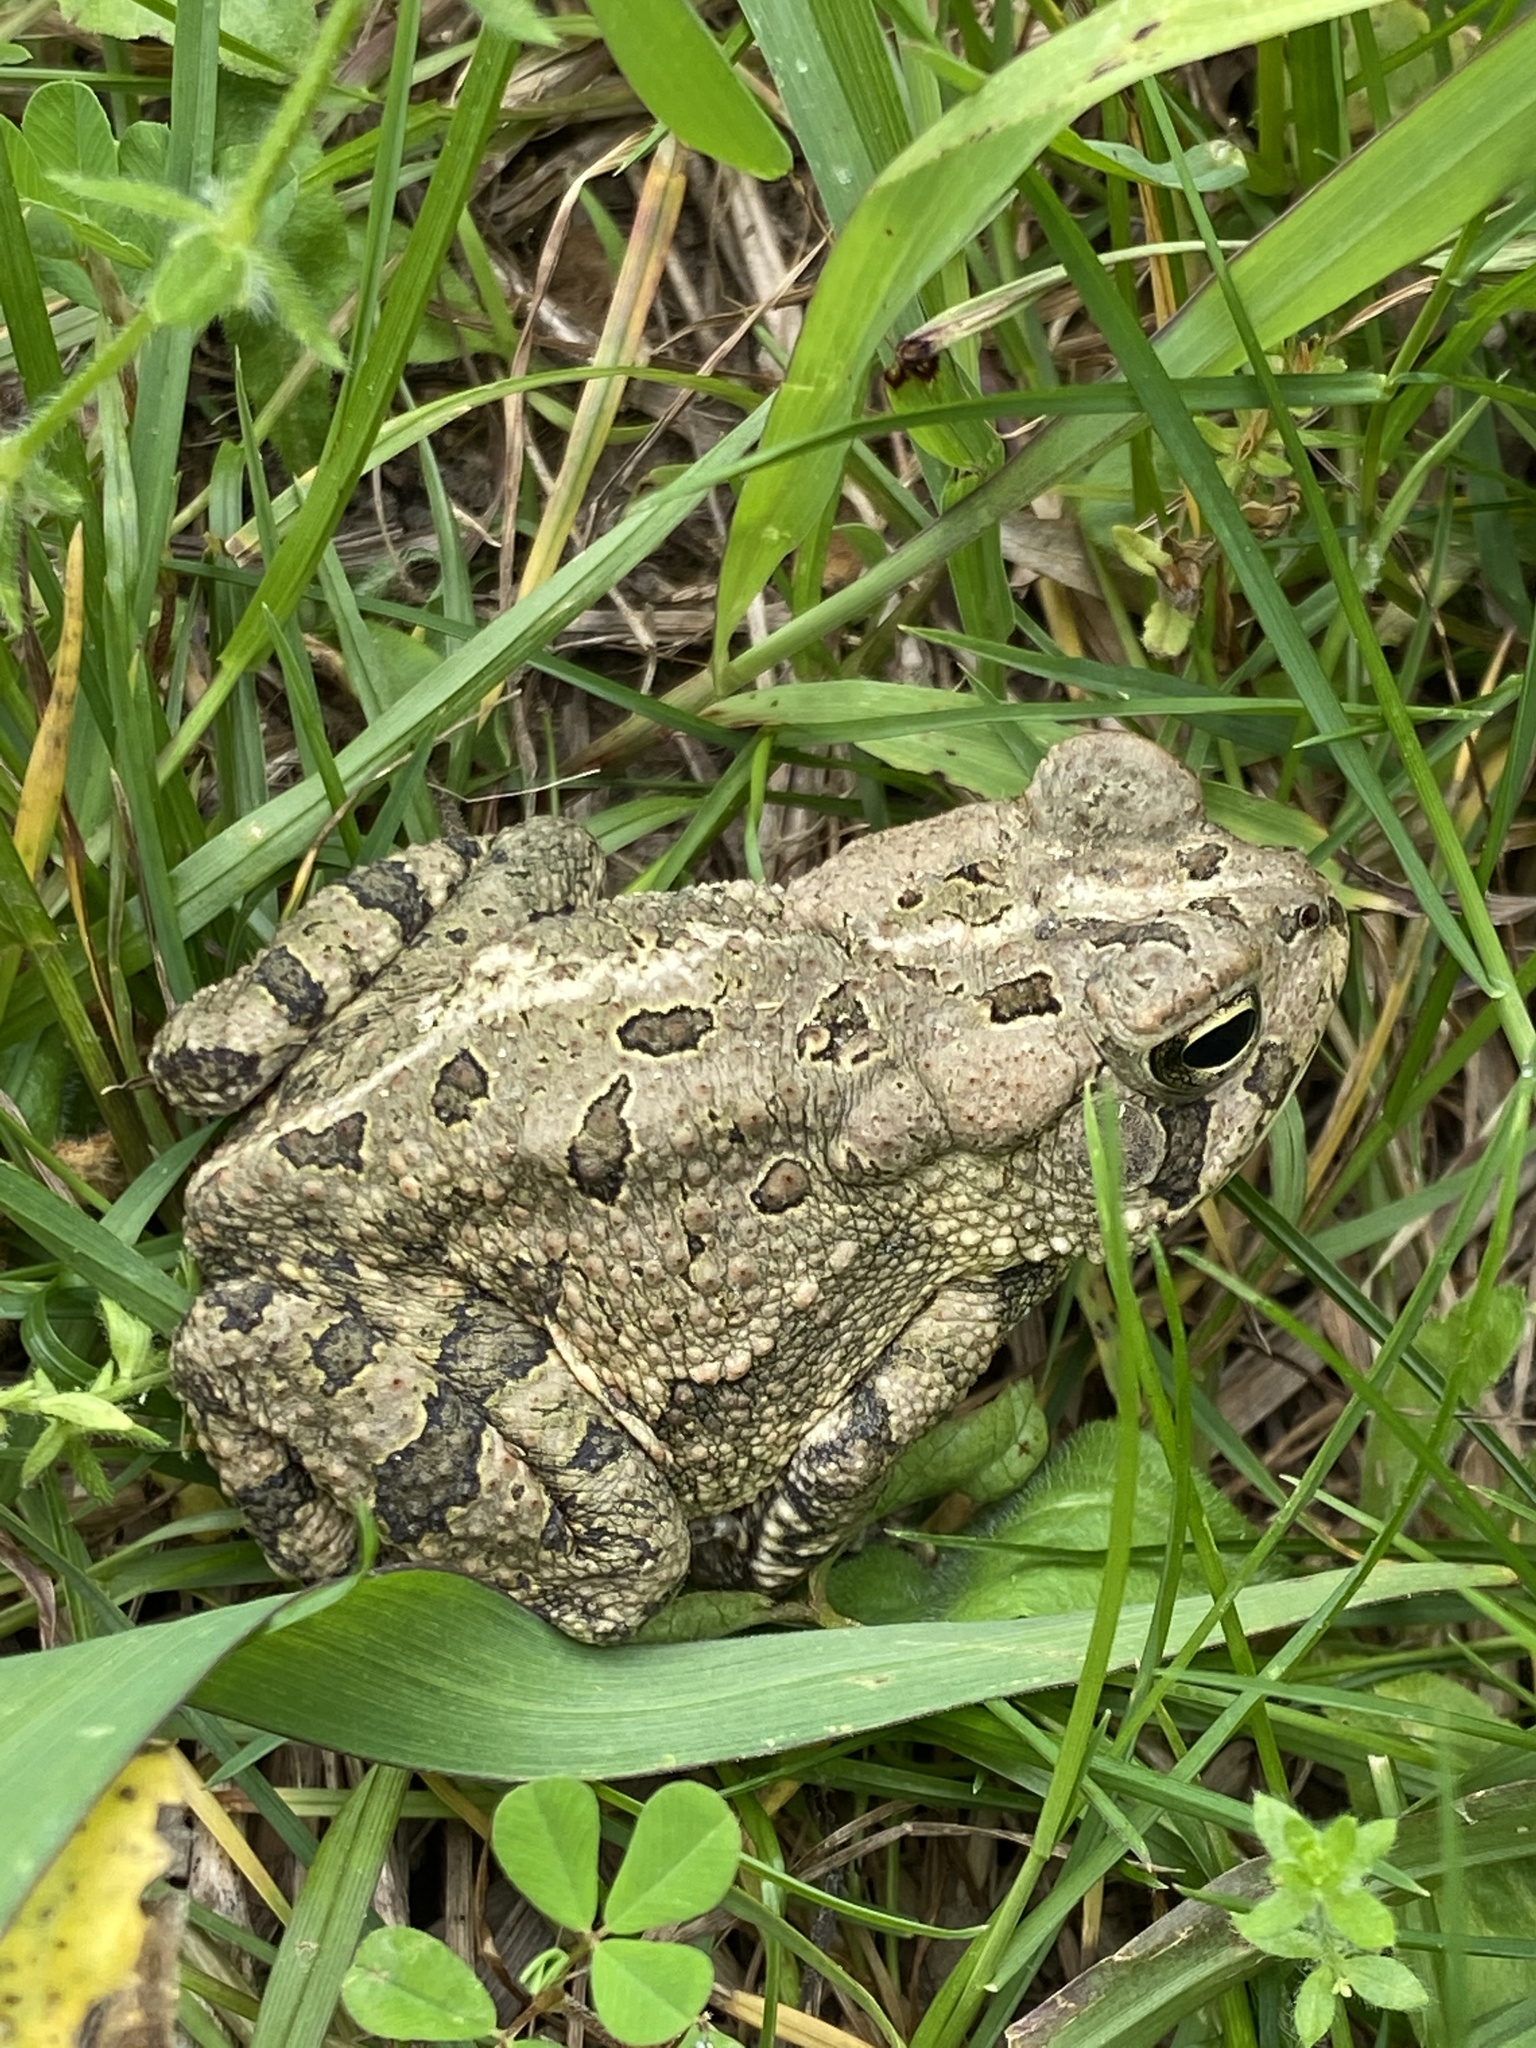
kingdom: Animalia
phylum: Chordata
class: Amphibia
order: Anura
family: Bufonidae
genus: Anaxyrus
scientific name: Anaxyrus fowleri
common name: Fowler's toad
